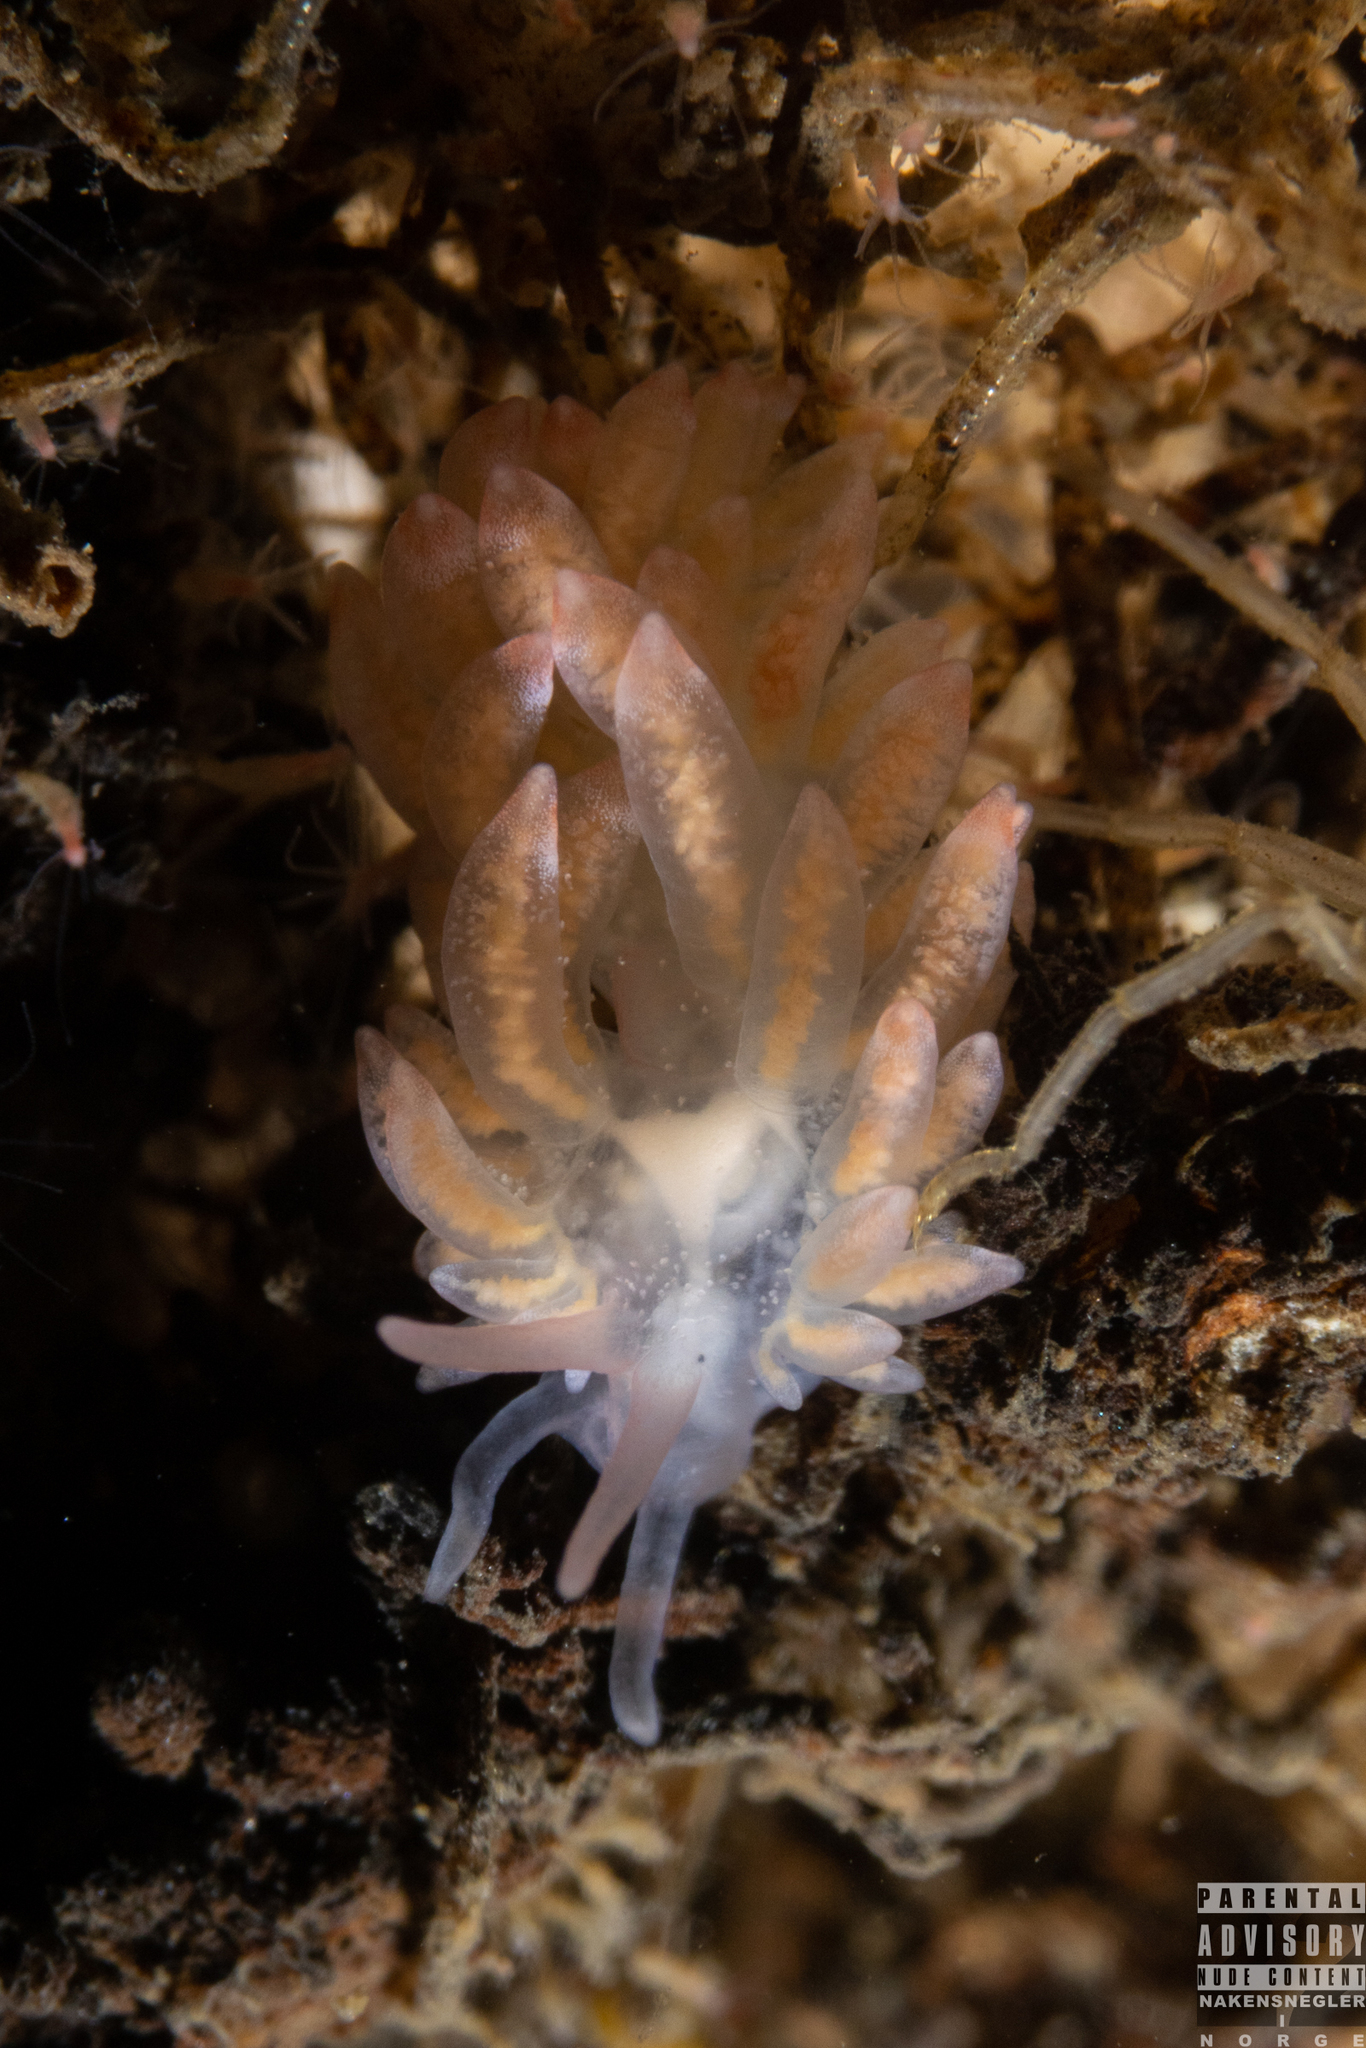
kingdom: Animalia
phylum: Mollusca
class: Gastropoda
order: Nudibranchia
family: Trinchesiidae
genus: Catriona
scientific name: Catriona aurantia
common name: Corange-tip cuthona
